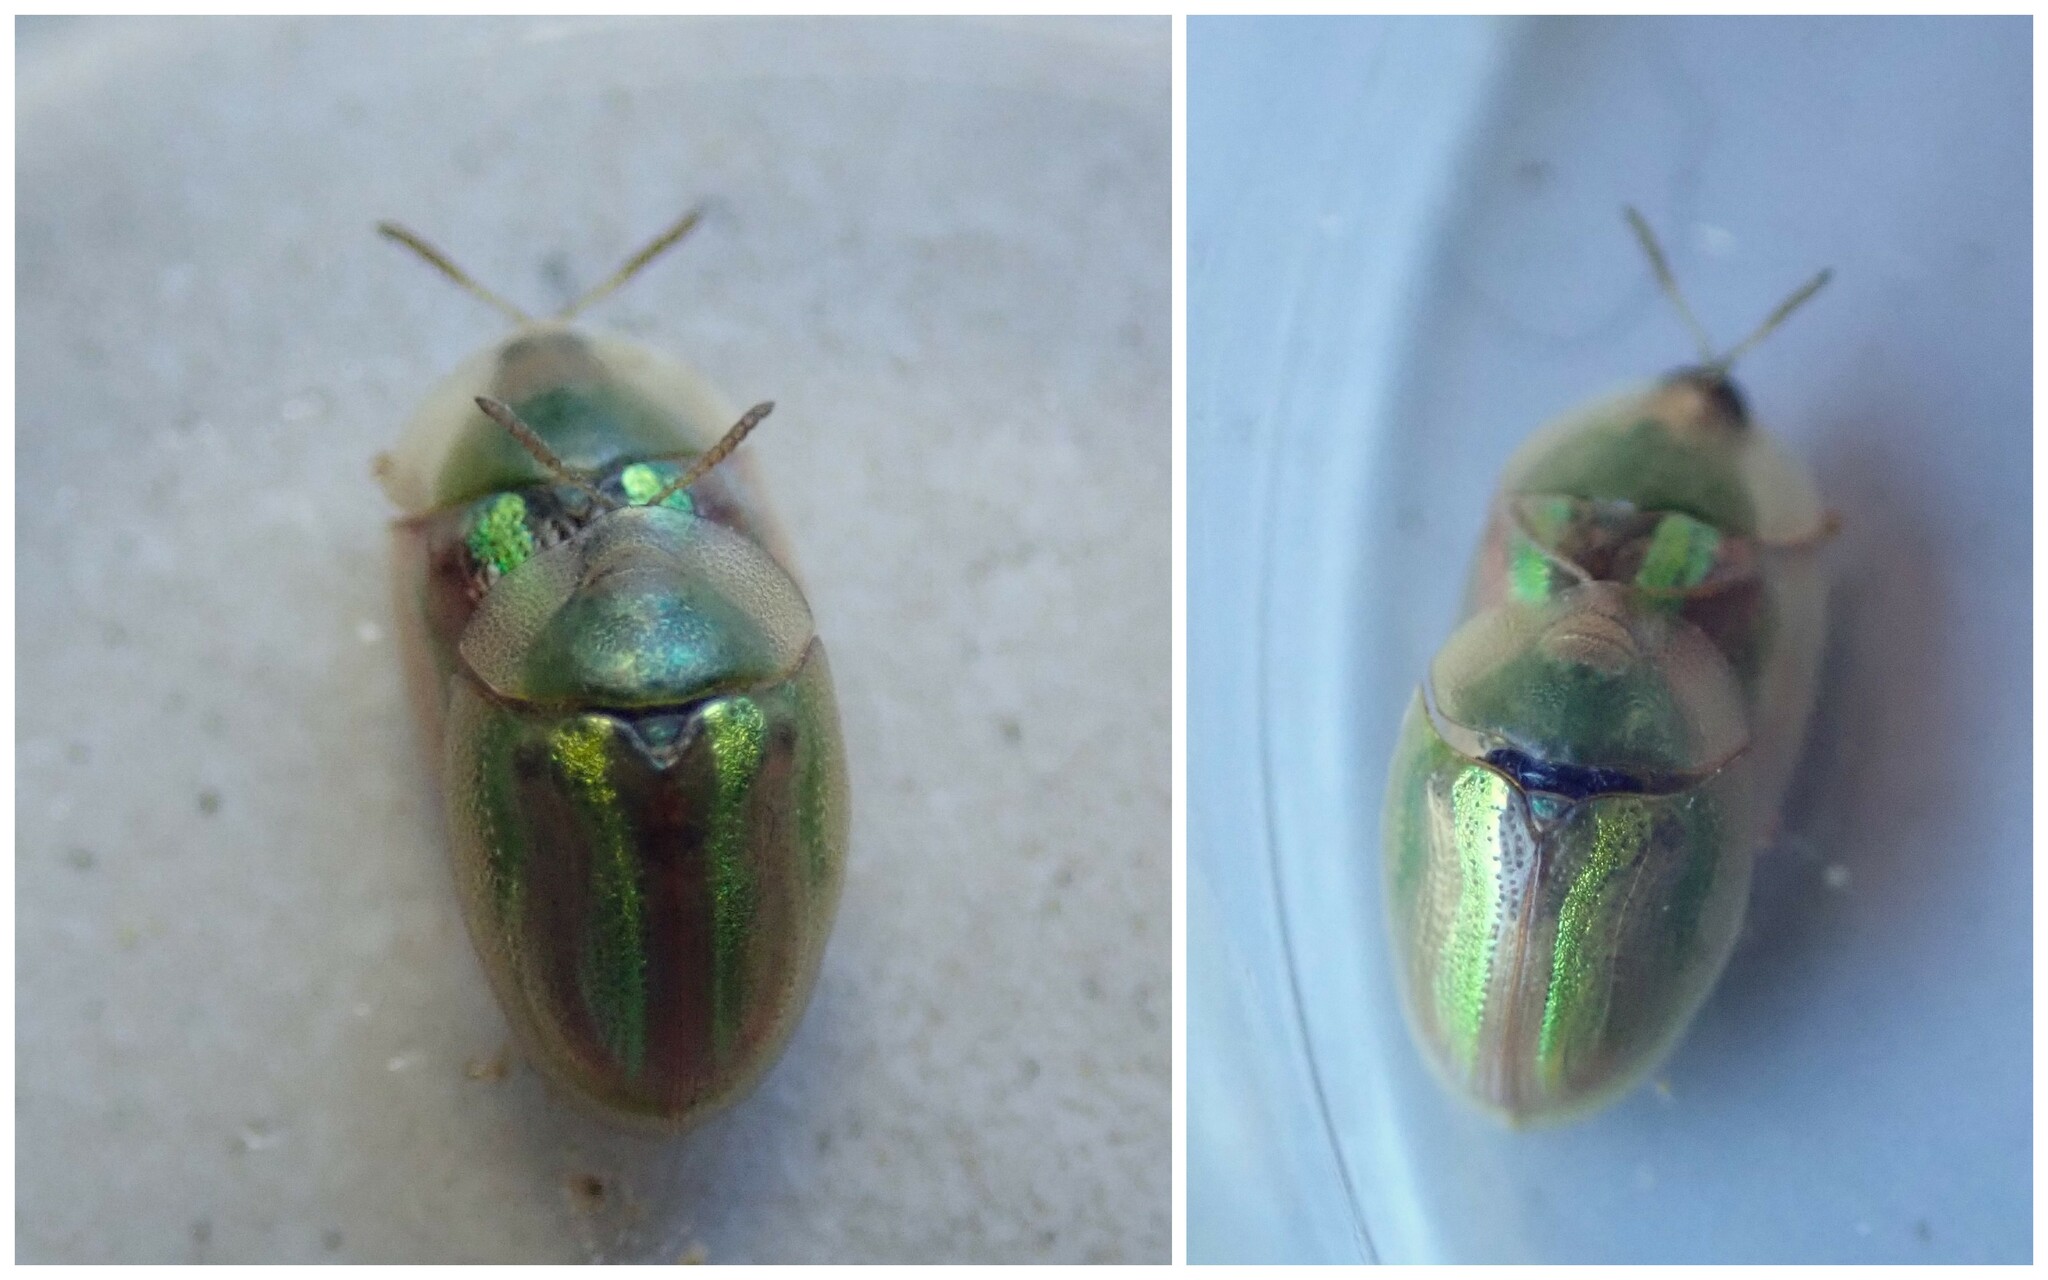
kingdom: Animalia
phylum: Arthropoda
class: Insecta
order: Coleoptera
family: Chrysomelidae
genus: Cassida
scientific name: Cassida vittata
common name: Bordered tortoise beetle
